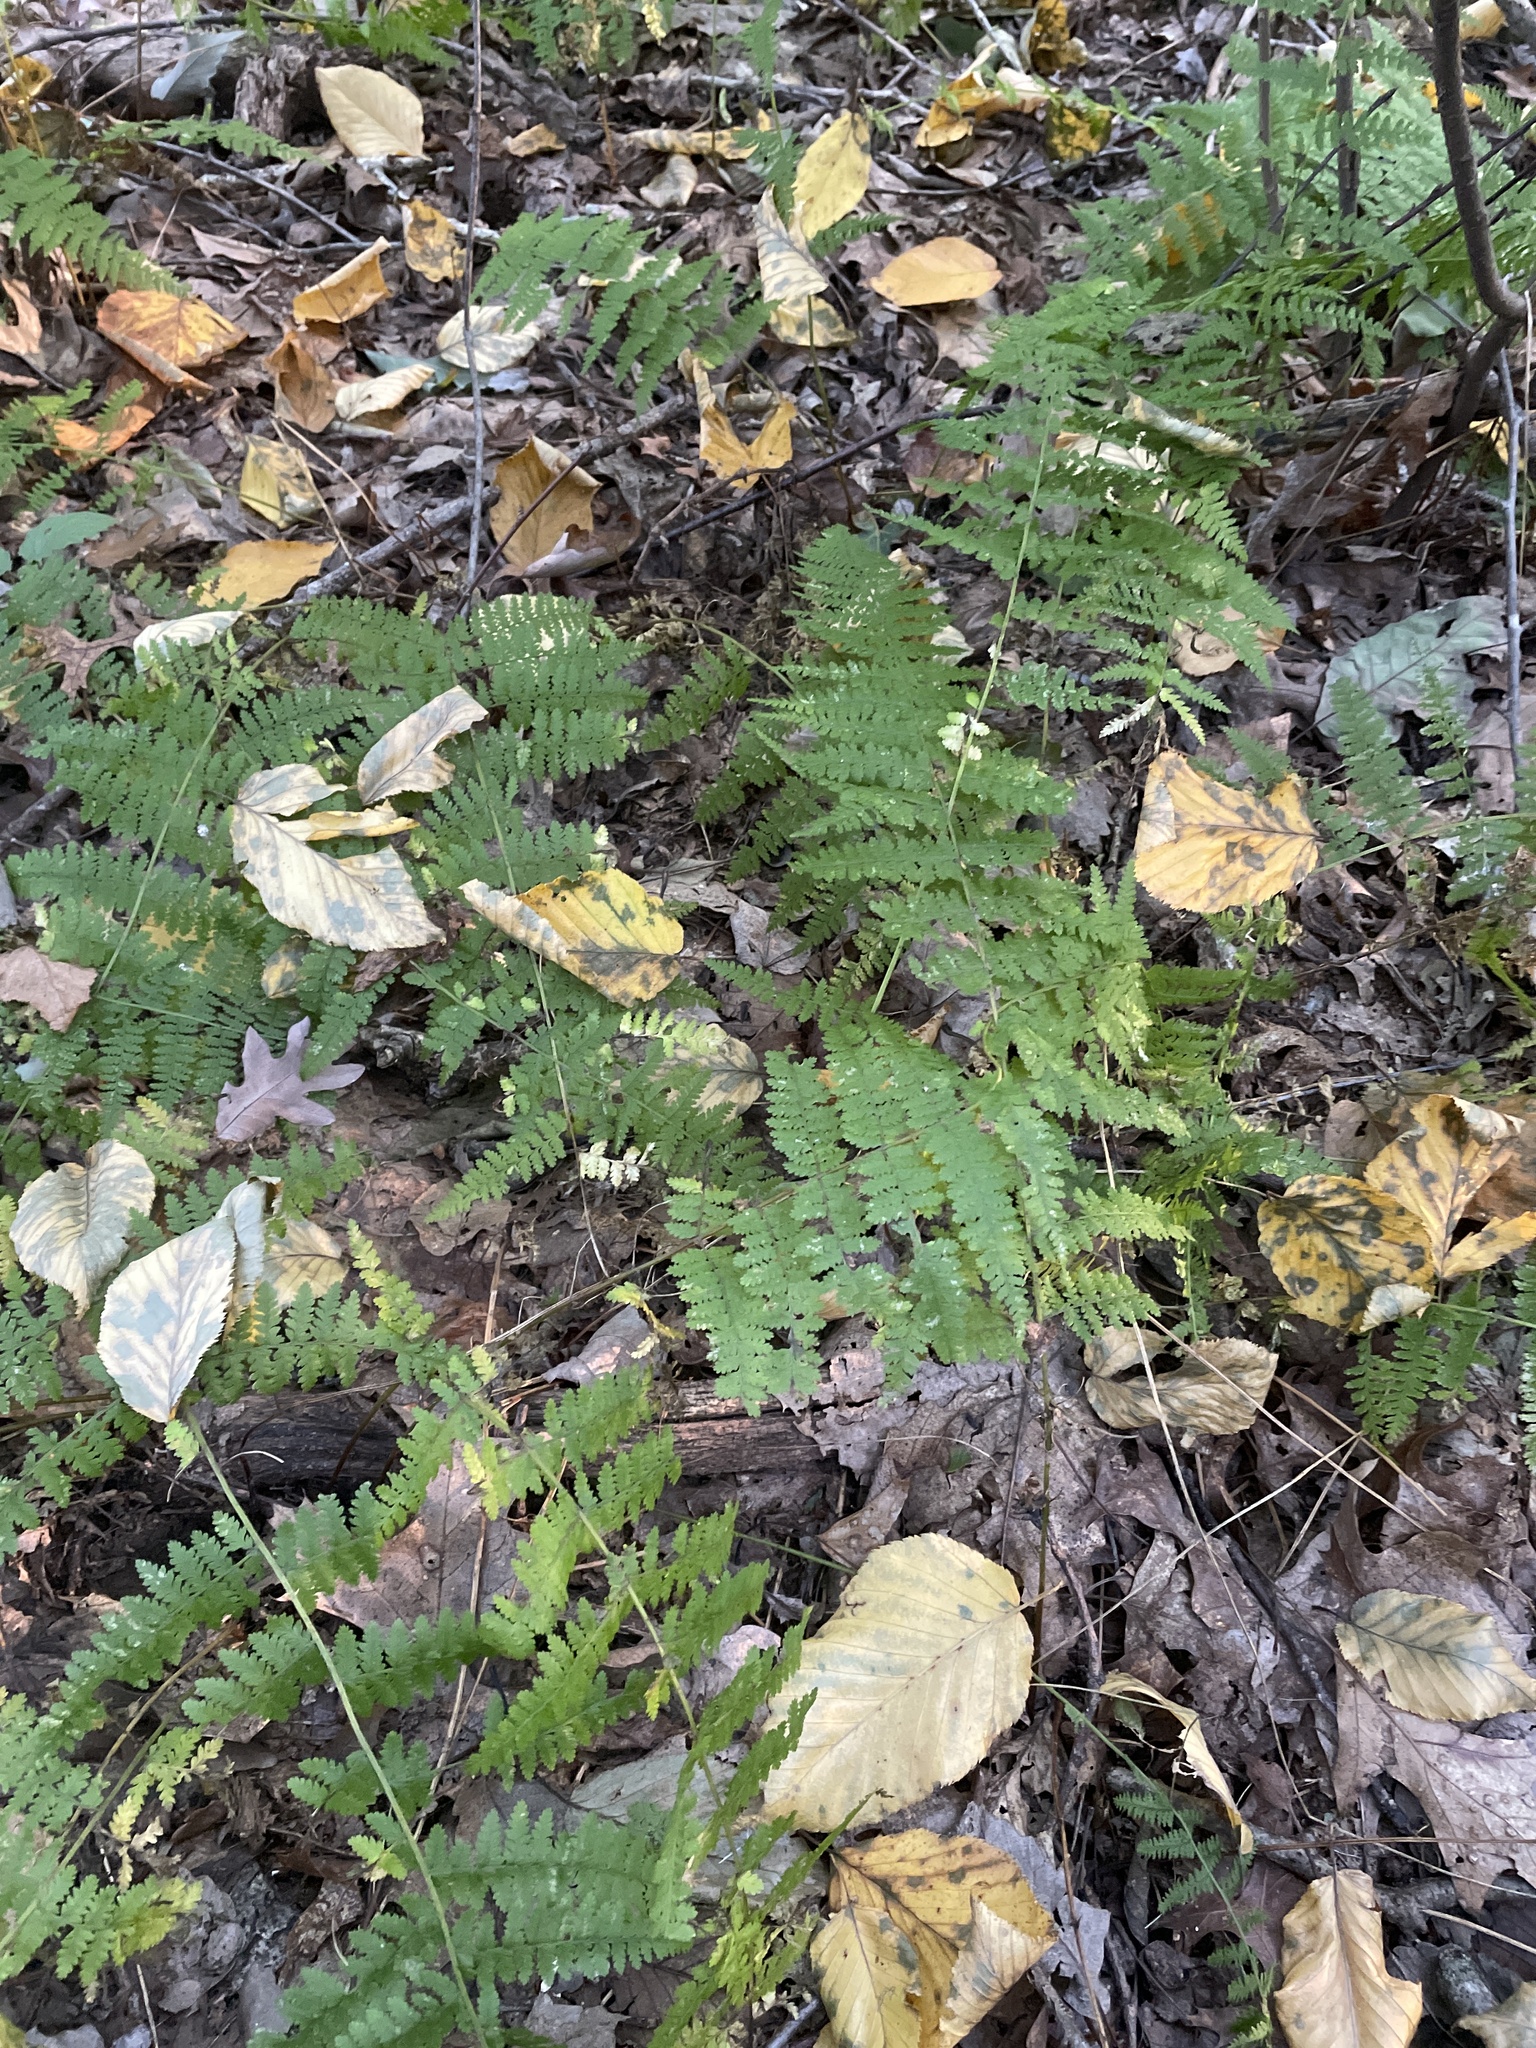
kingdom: Plantae
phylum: Tracheophyta
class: Polypodiopsida
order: Polypodiales
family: Dennstaedtiaceae
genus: Sitobolium
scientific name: Sitobolium punctilobum
